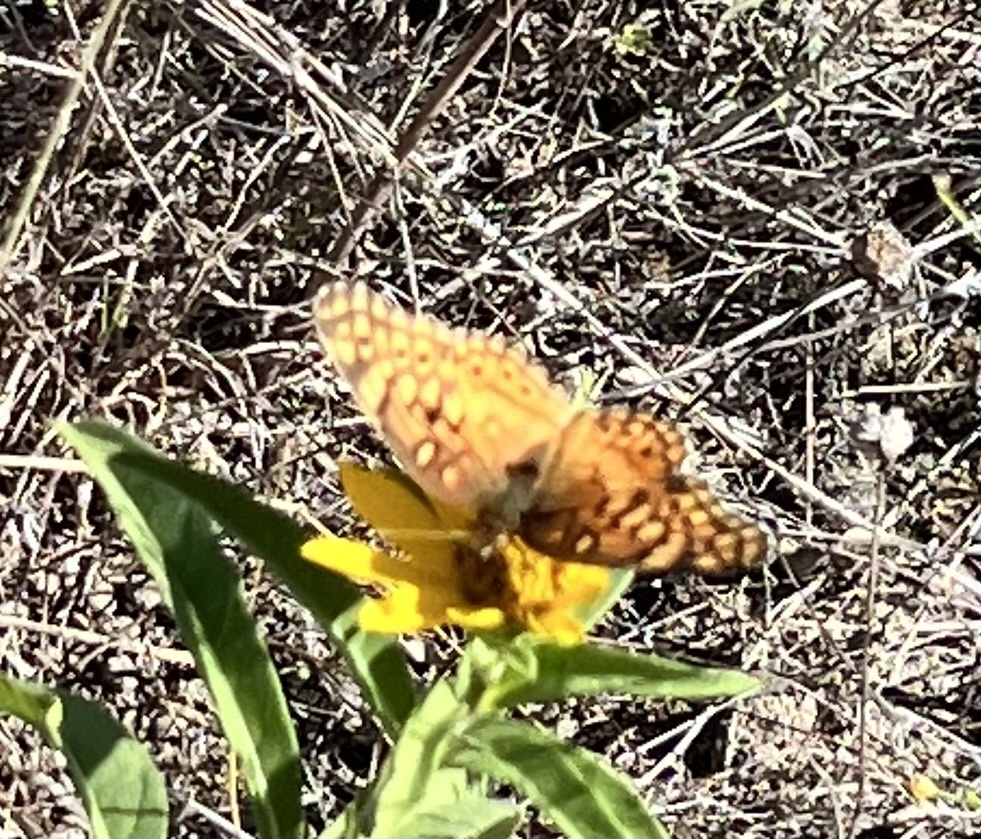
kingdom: Animalia
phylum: Arthropoda
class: Insecta
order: Lepidoptera
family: Nymphalidae
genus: Euptoieta
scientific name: Euptoieta claudia
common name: Variegated fritillary
